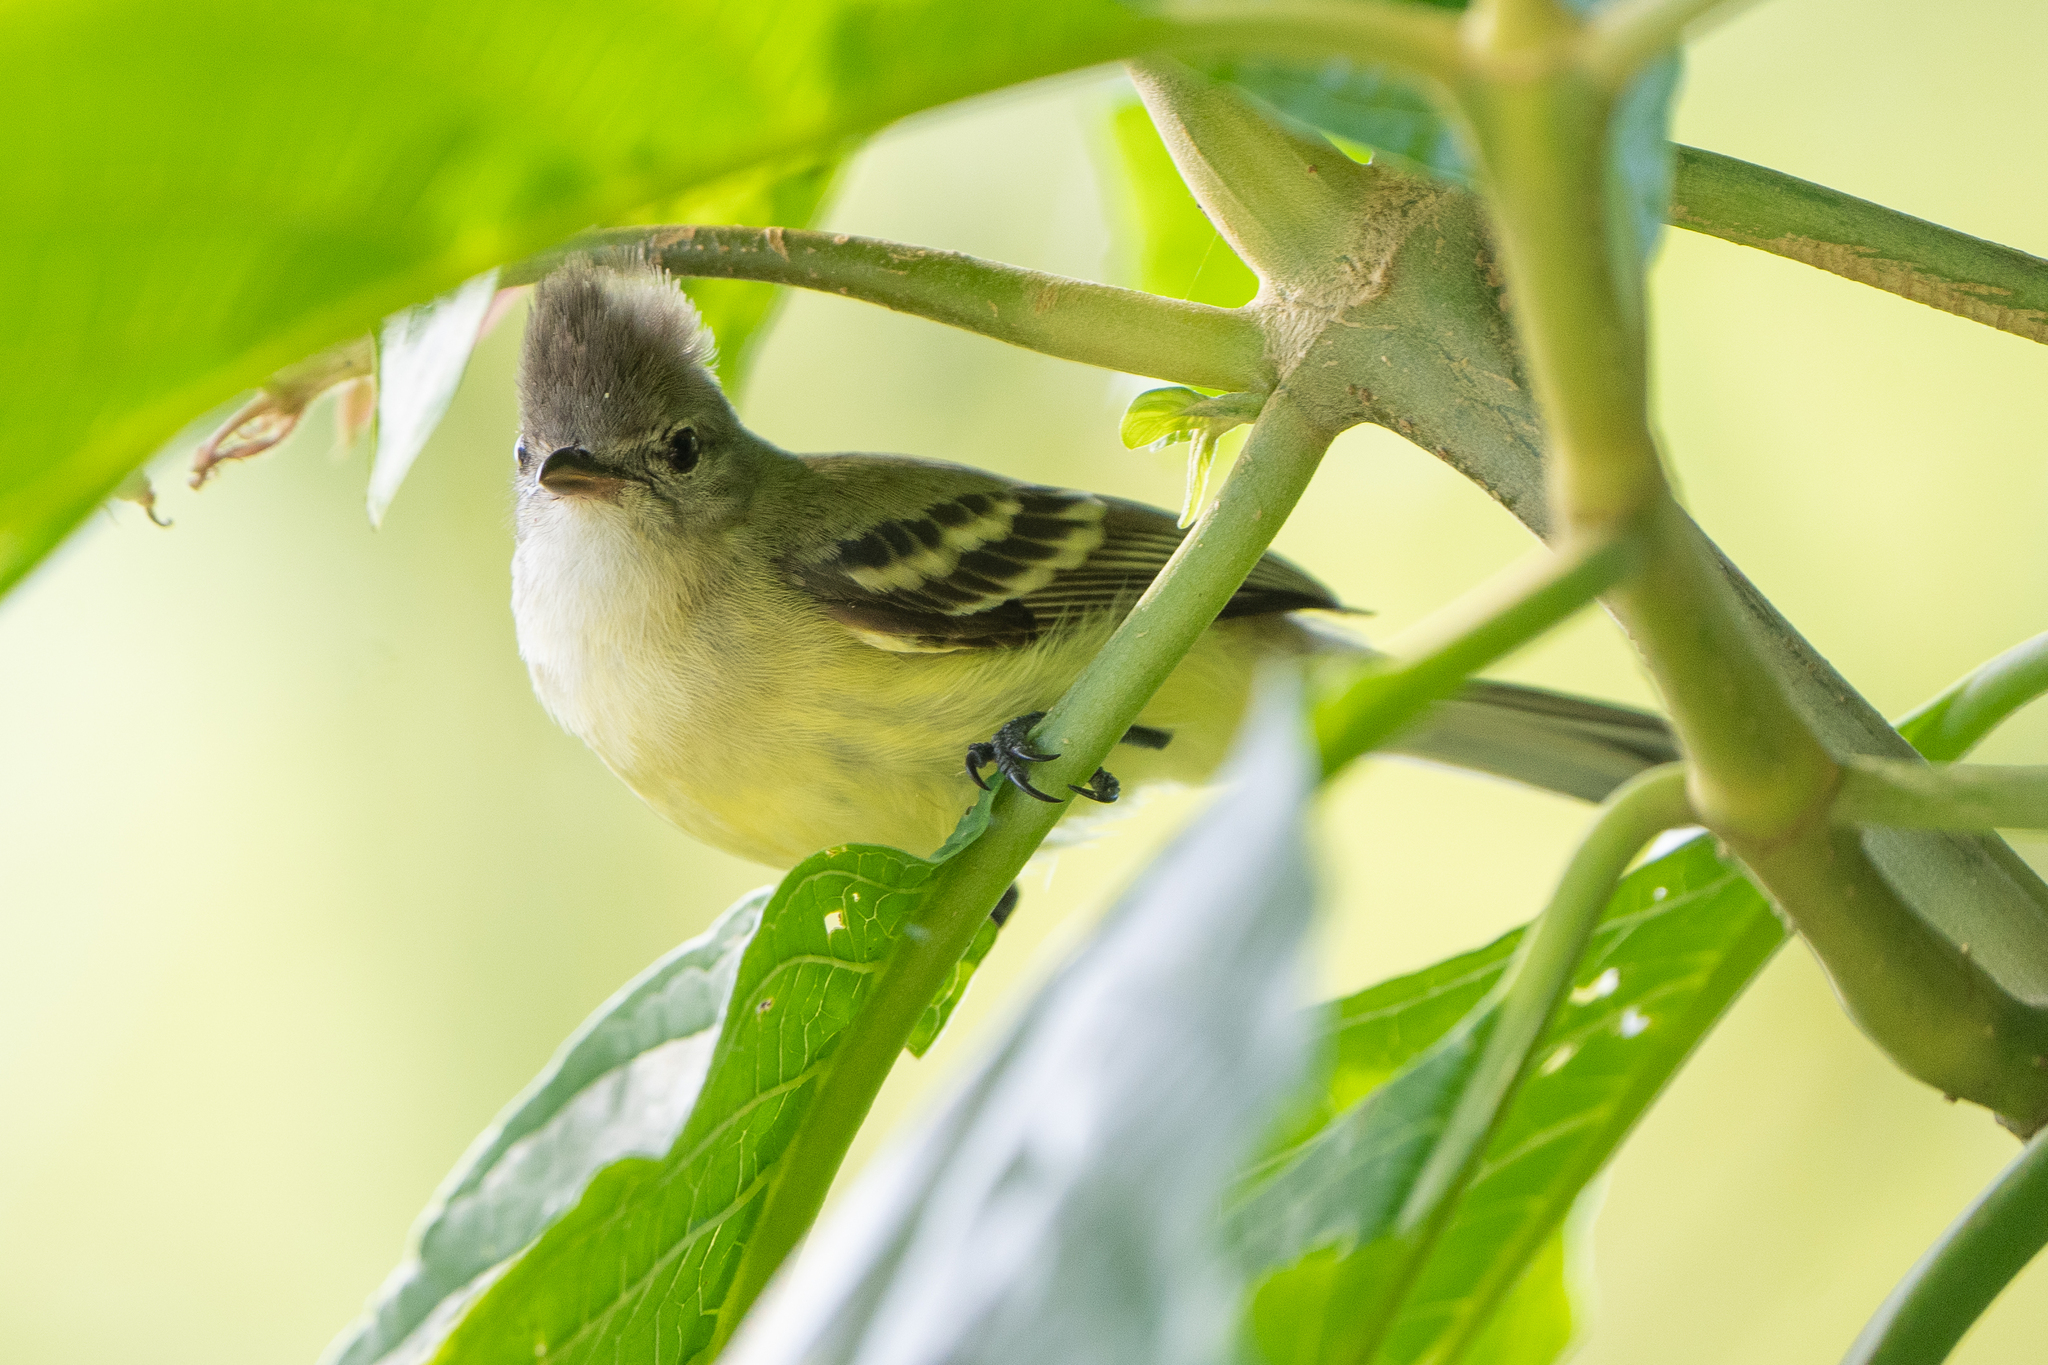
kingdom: Animalia
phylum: Chordata
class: Aves
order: Passeriformes
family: Tyrannidae
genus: Camptostoma
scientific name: Camptostoma obsoletum
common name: Southern beardless-tyrannulet
